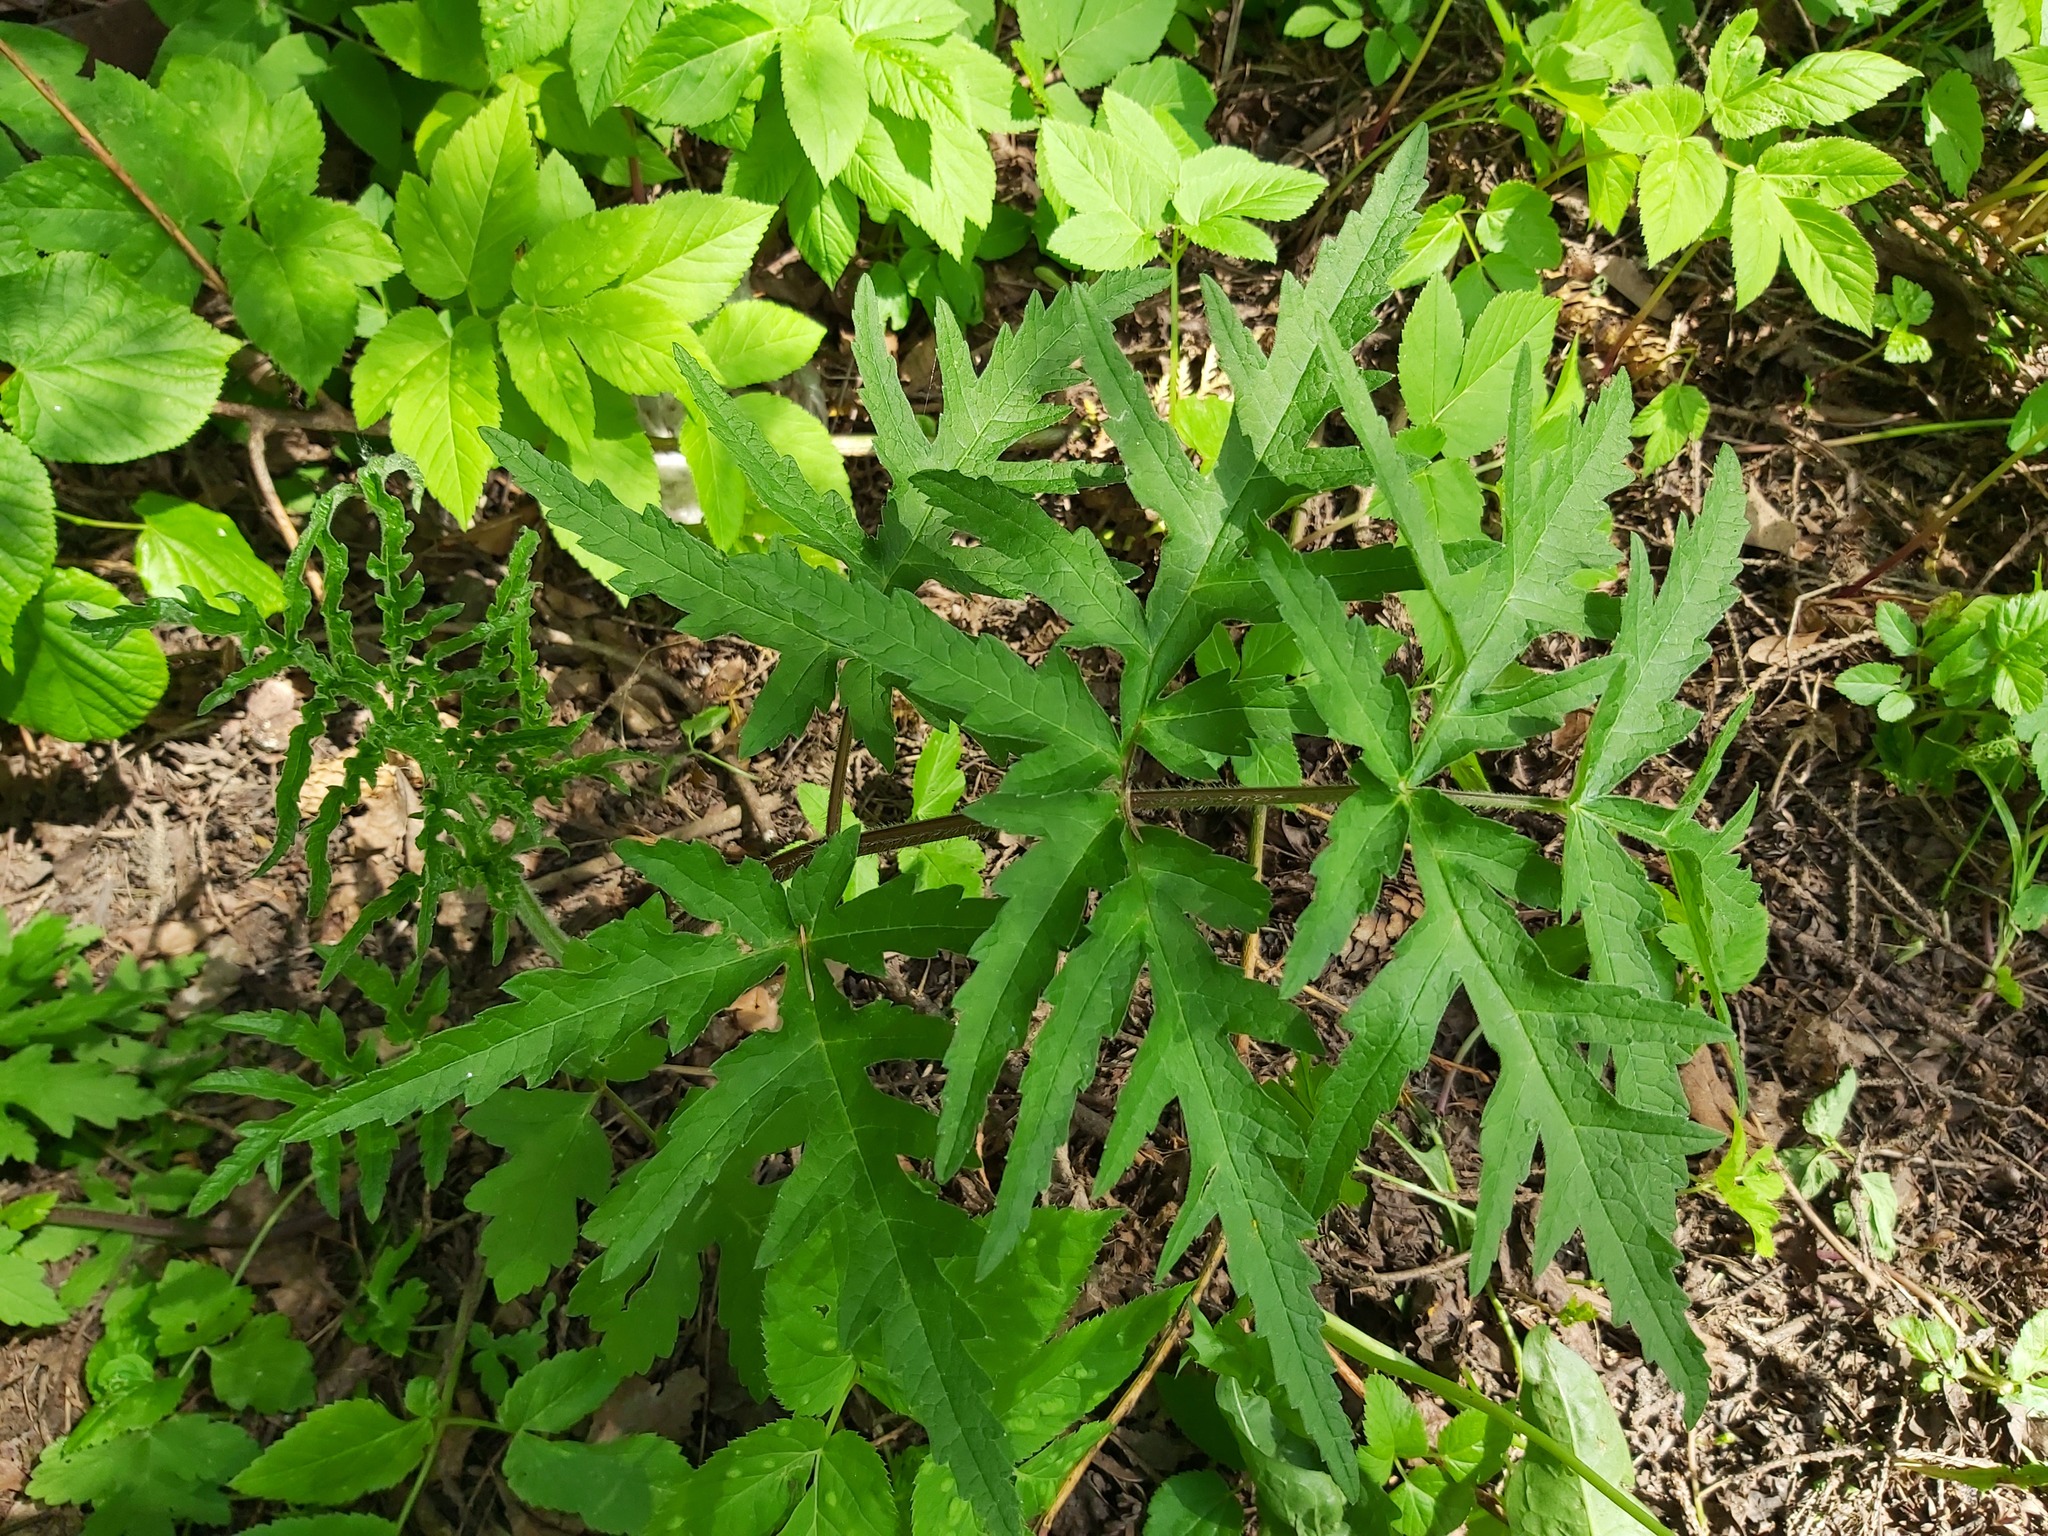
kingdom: Plantae
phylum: Tracheophyta
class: Magnoliopsida
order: Apiales
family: Apiaceae
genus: Heracleum
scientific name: Heracleum sphondylium
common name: Hogweed
